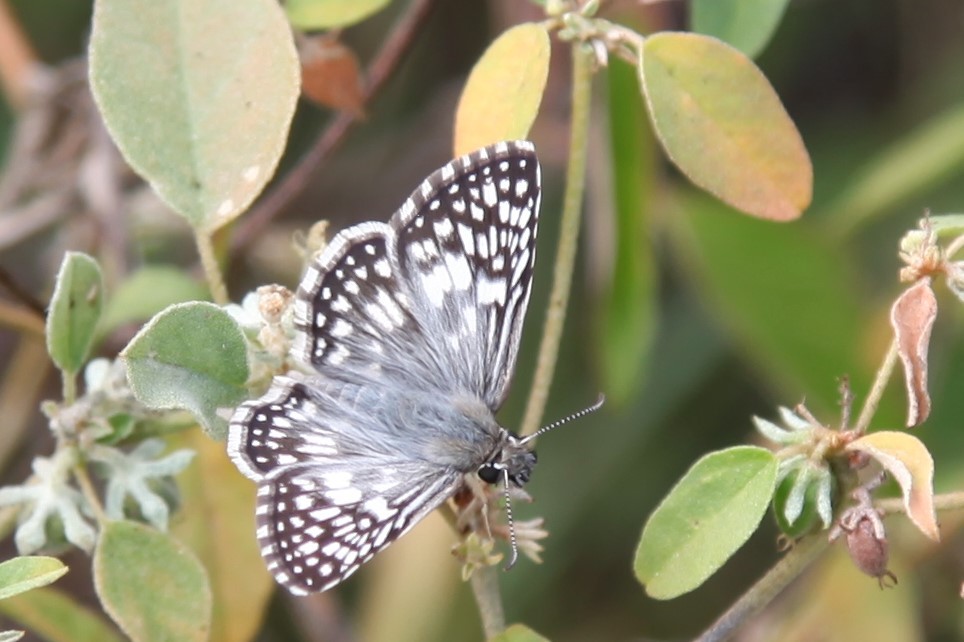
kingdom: Animalia
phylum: Arthropoda
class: Insecta
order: Lepidoptera
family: Hesperiidae
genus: Burnsius
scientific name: Burnsius philetas
